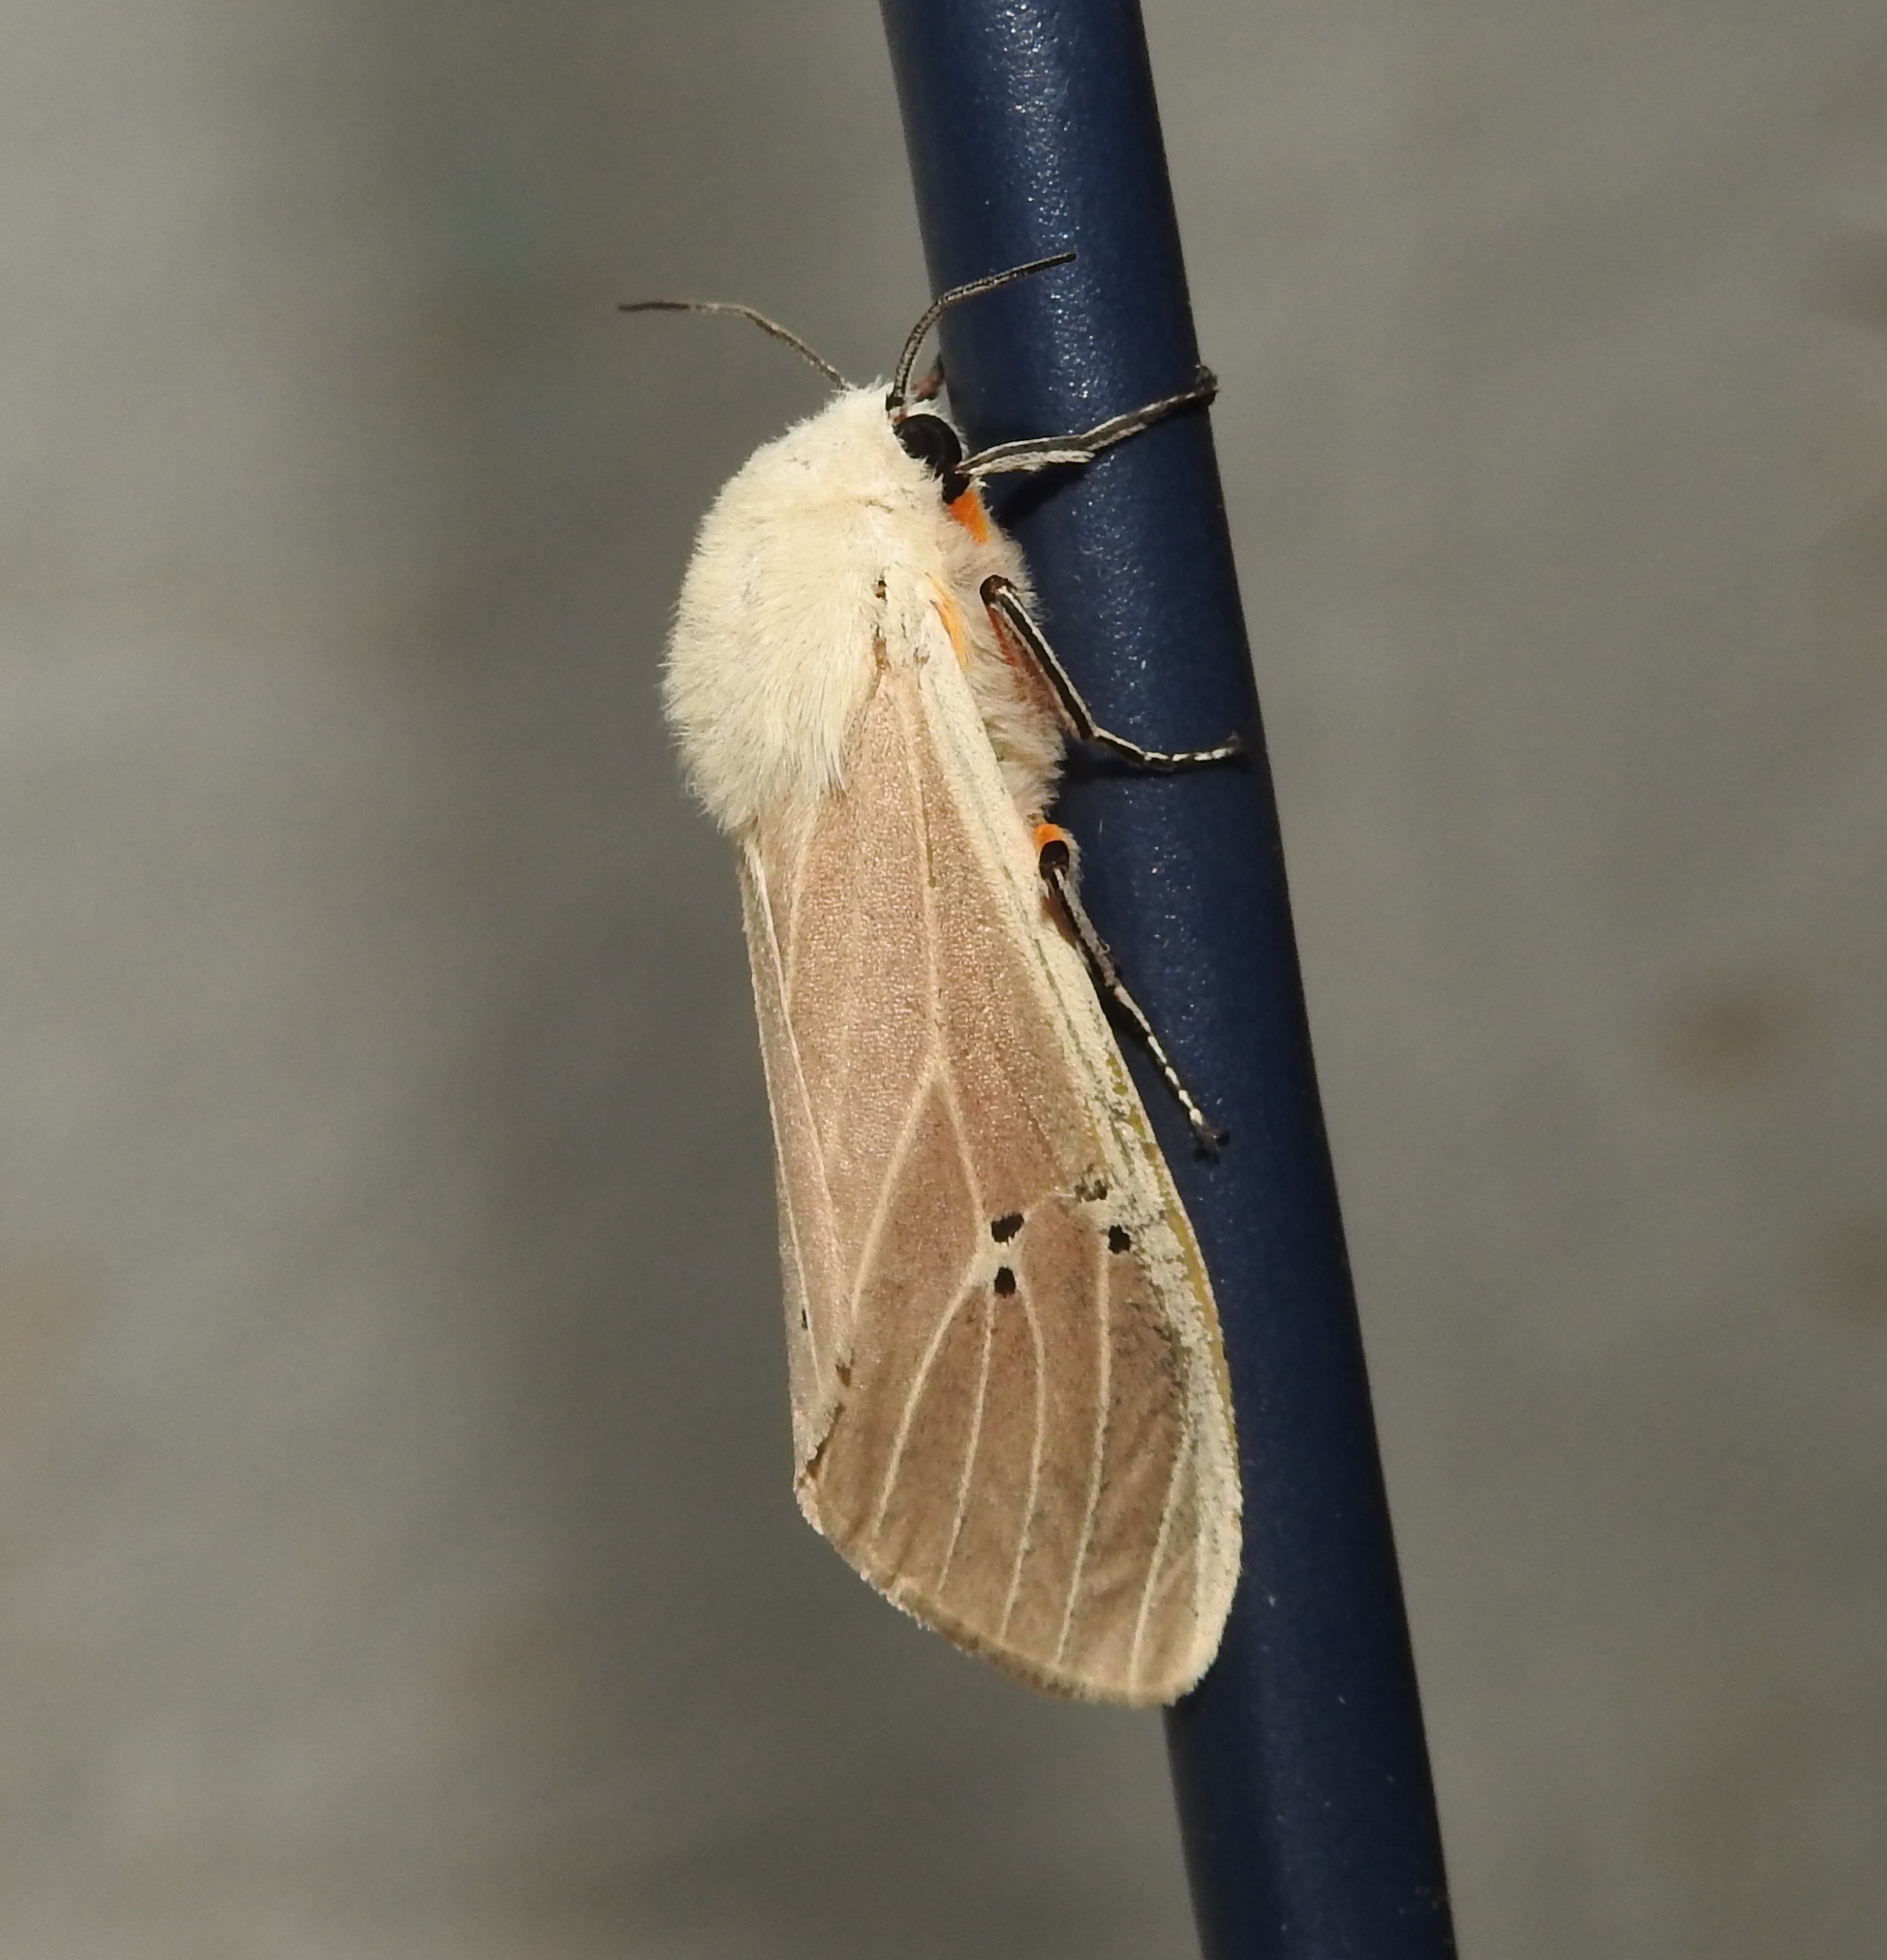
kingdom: Animalia
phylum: Arthropoda
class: Insecta
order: Lepidoptera
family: Erebidae
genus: Creatonotos
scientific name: Creatonotos transiens
